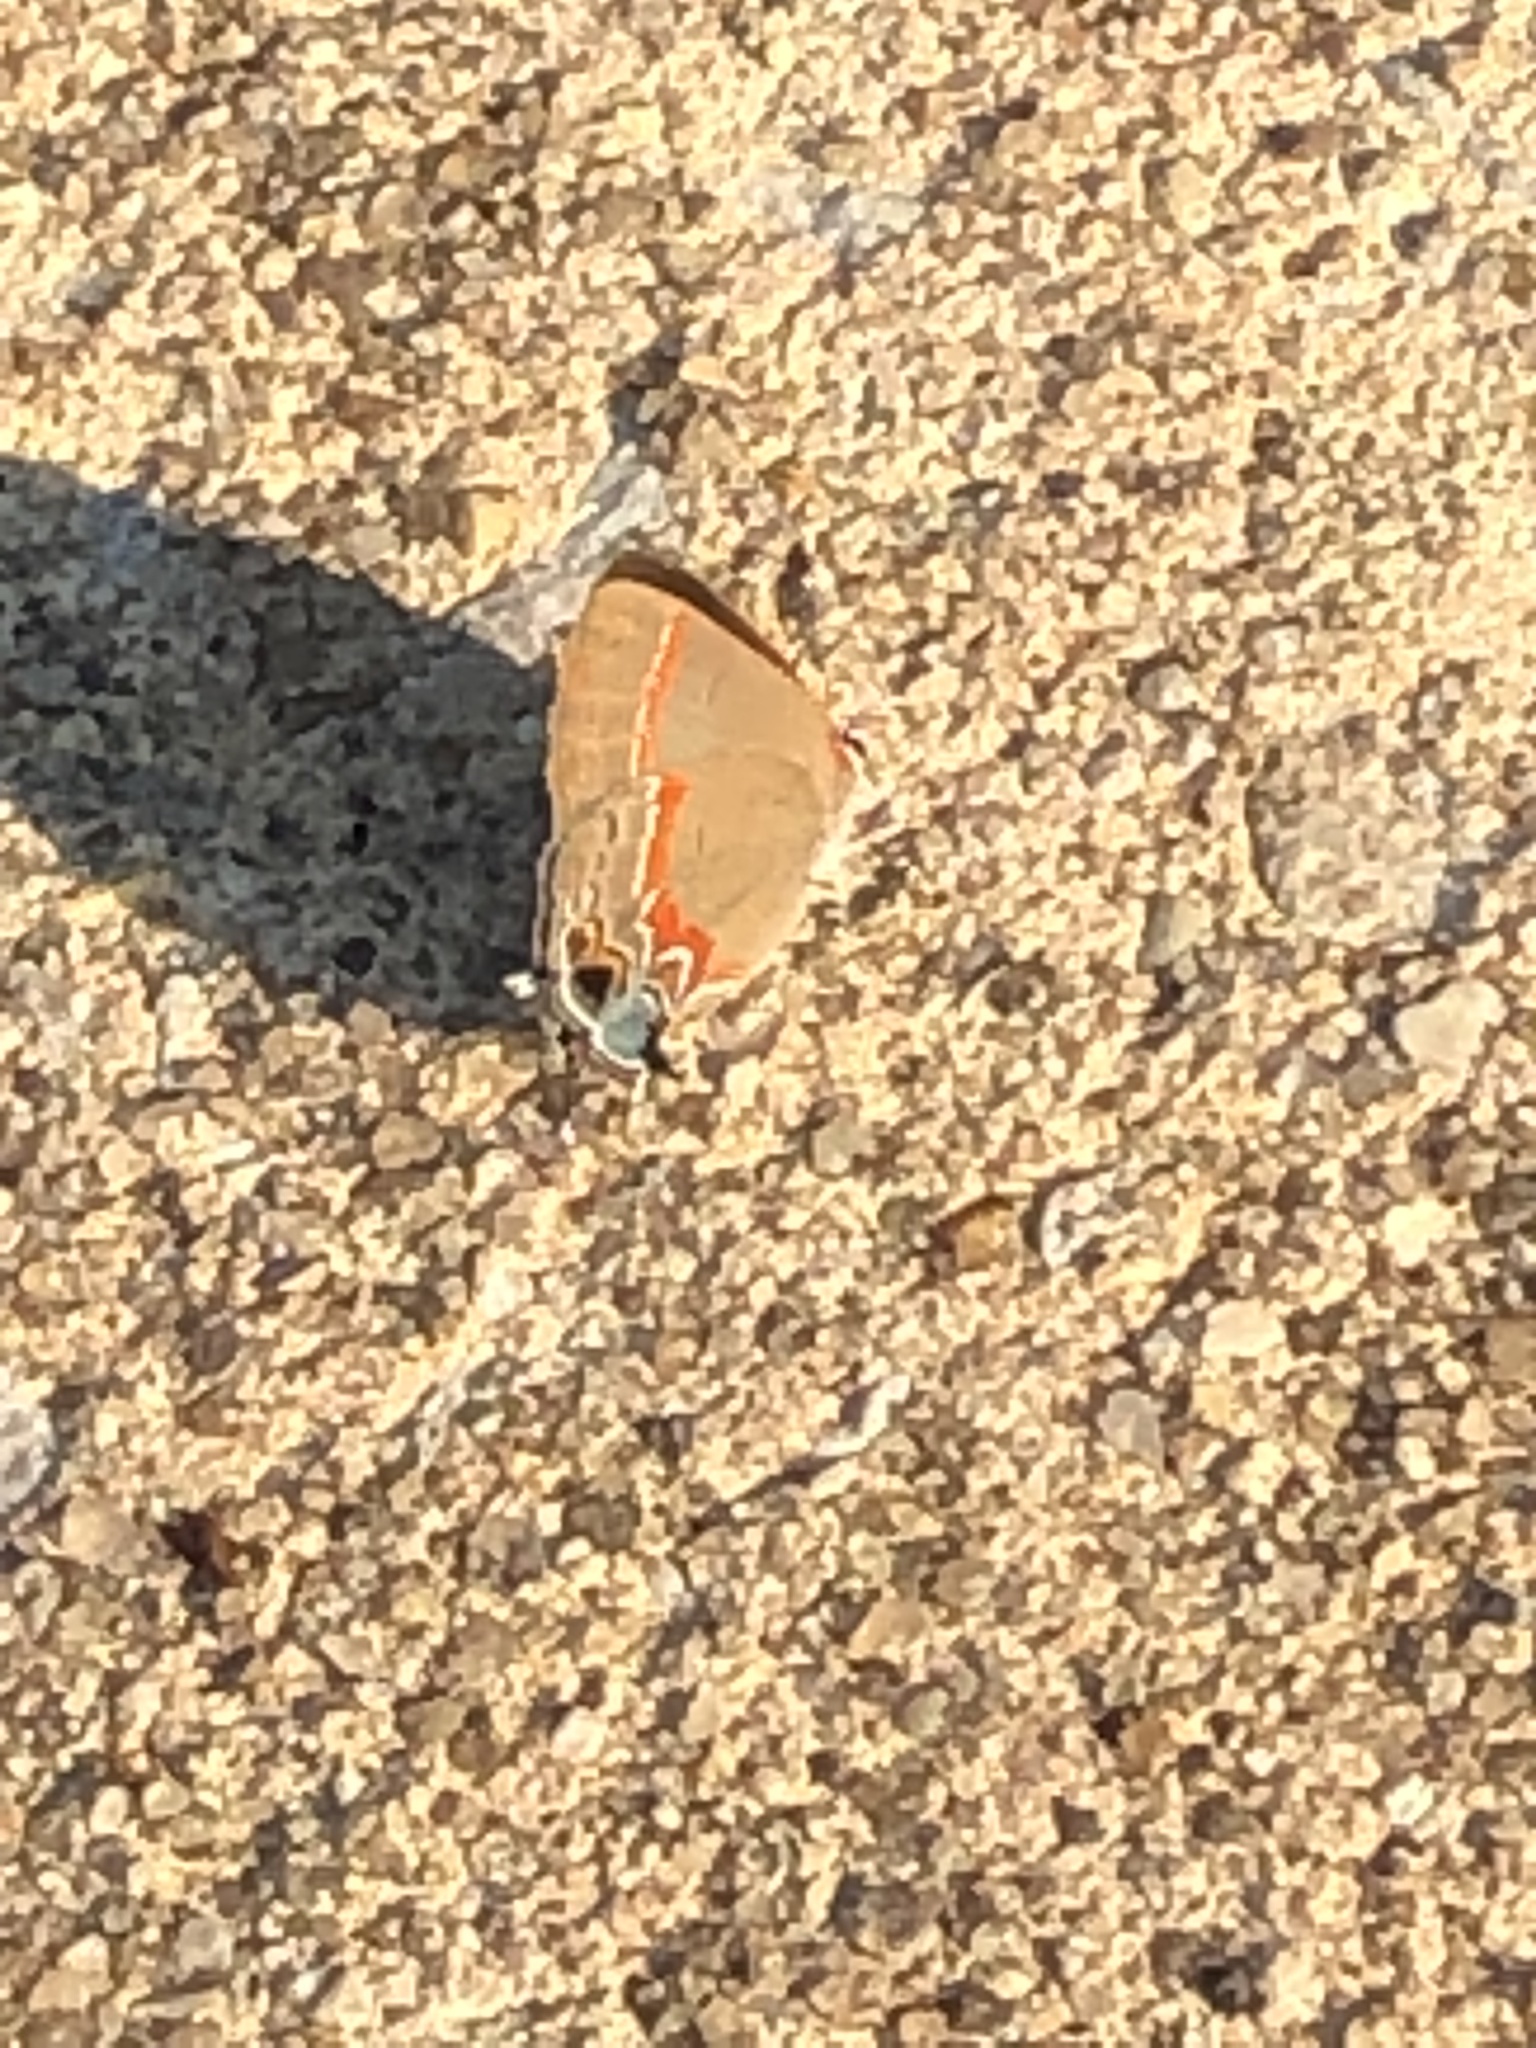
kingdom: Animalia
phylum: Arthropoda
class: Insecta
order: Lepidoptera
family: Lycaenidae
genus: Calycopis
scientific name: Calycopis cecrops
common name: Red-banded hairstreak
